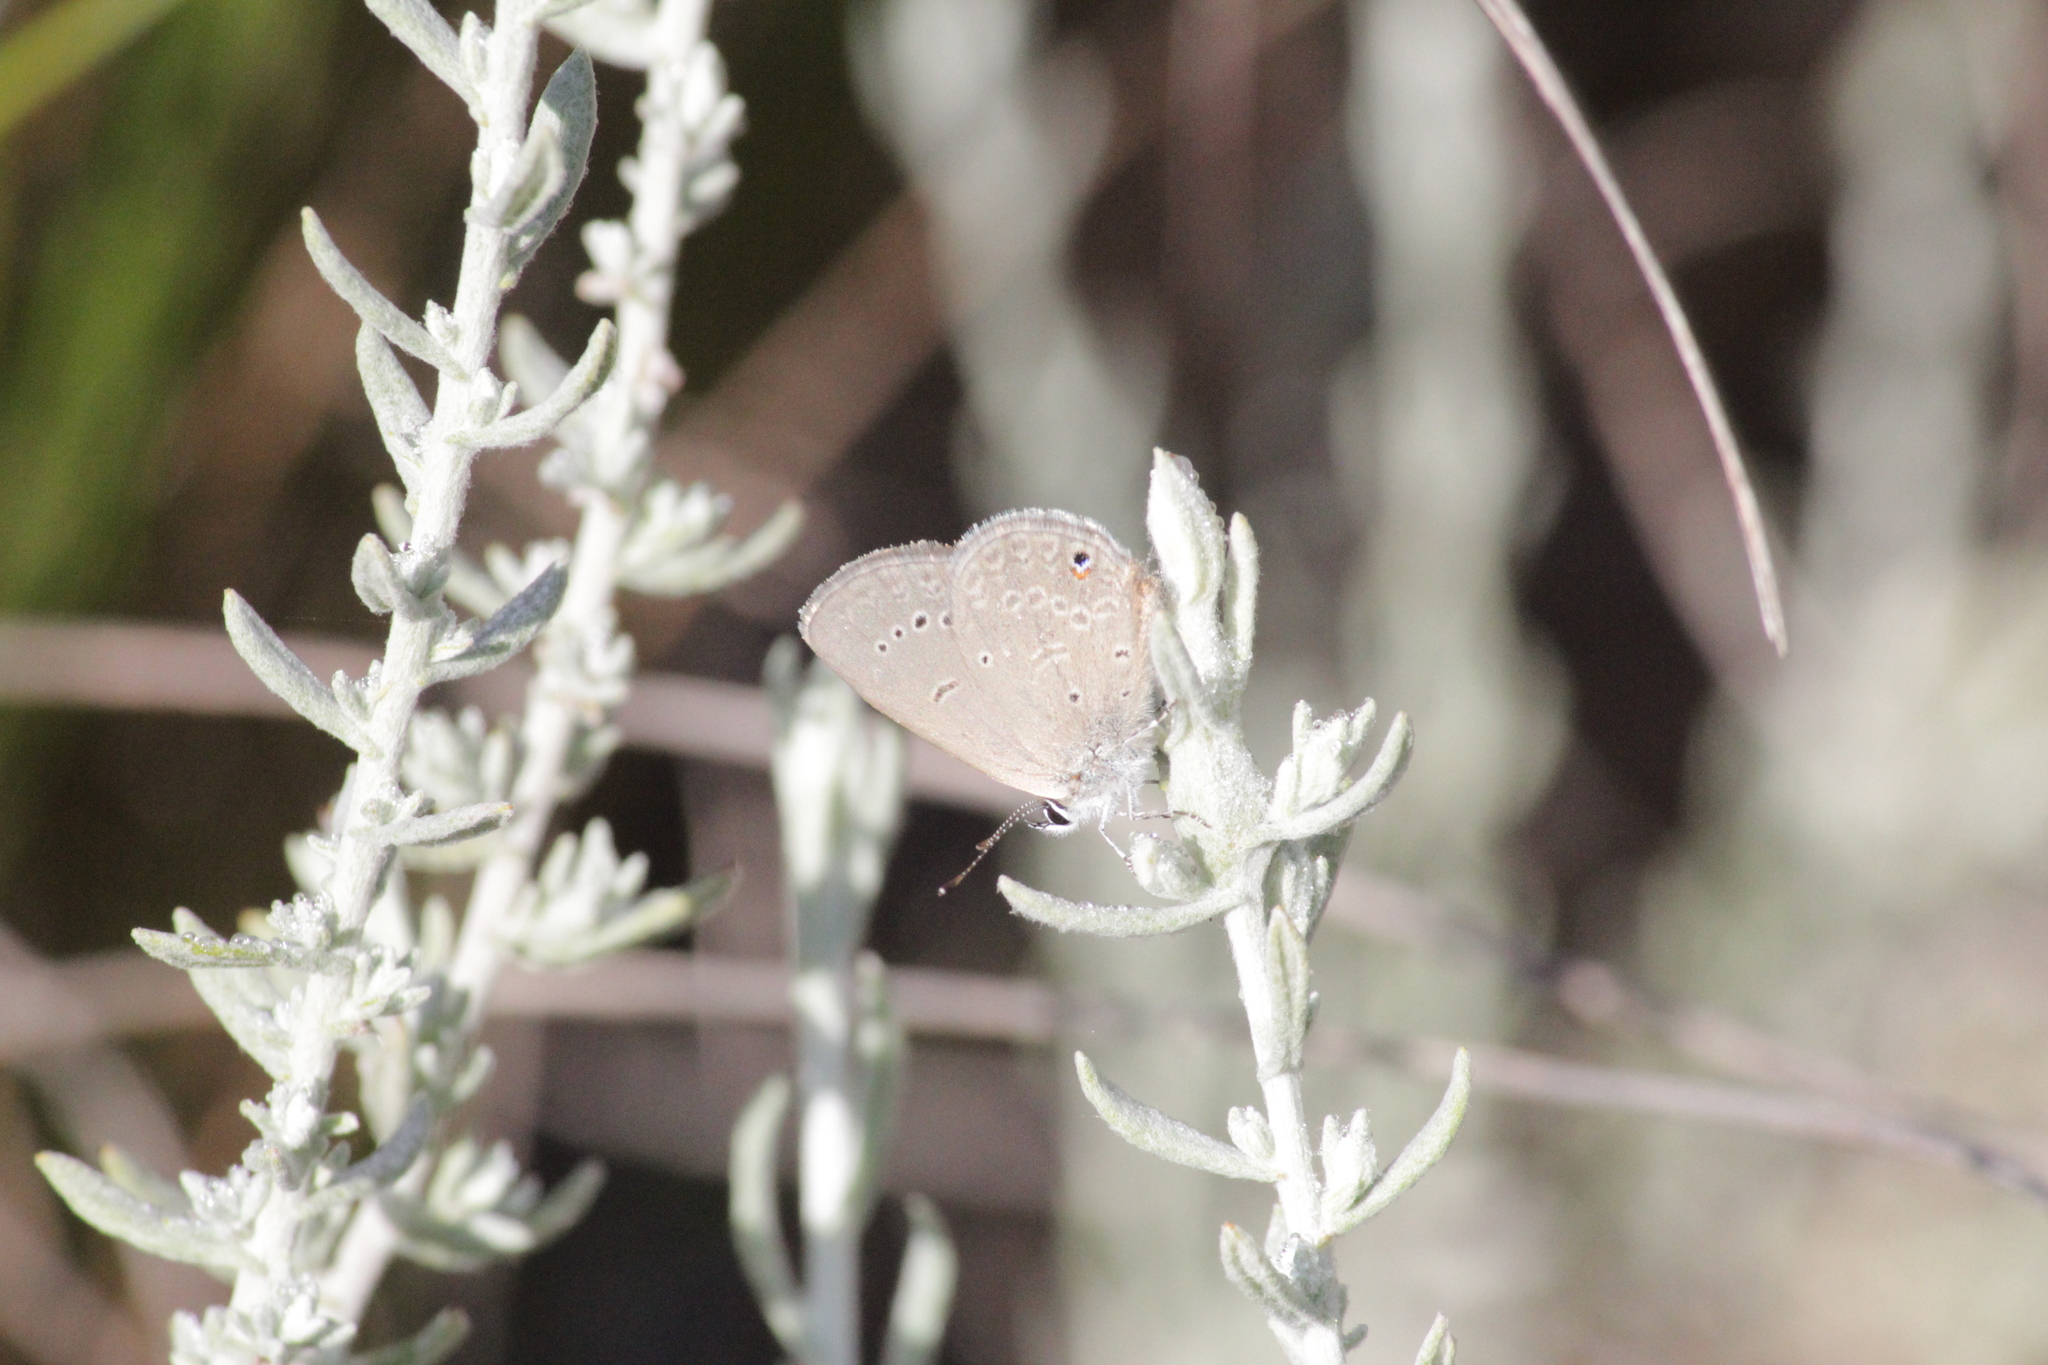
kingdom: Animalia
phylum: Arthropoda
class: Insecta
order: Lepidoptera
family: Lycaenidae
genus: Eicochrysops
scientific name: Eicochrysops messapus
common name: Cupreous blue
